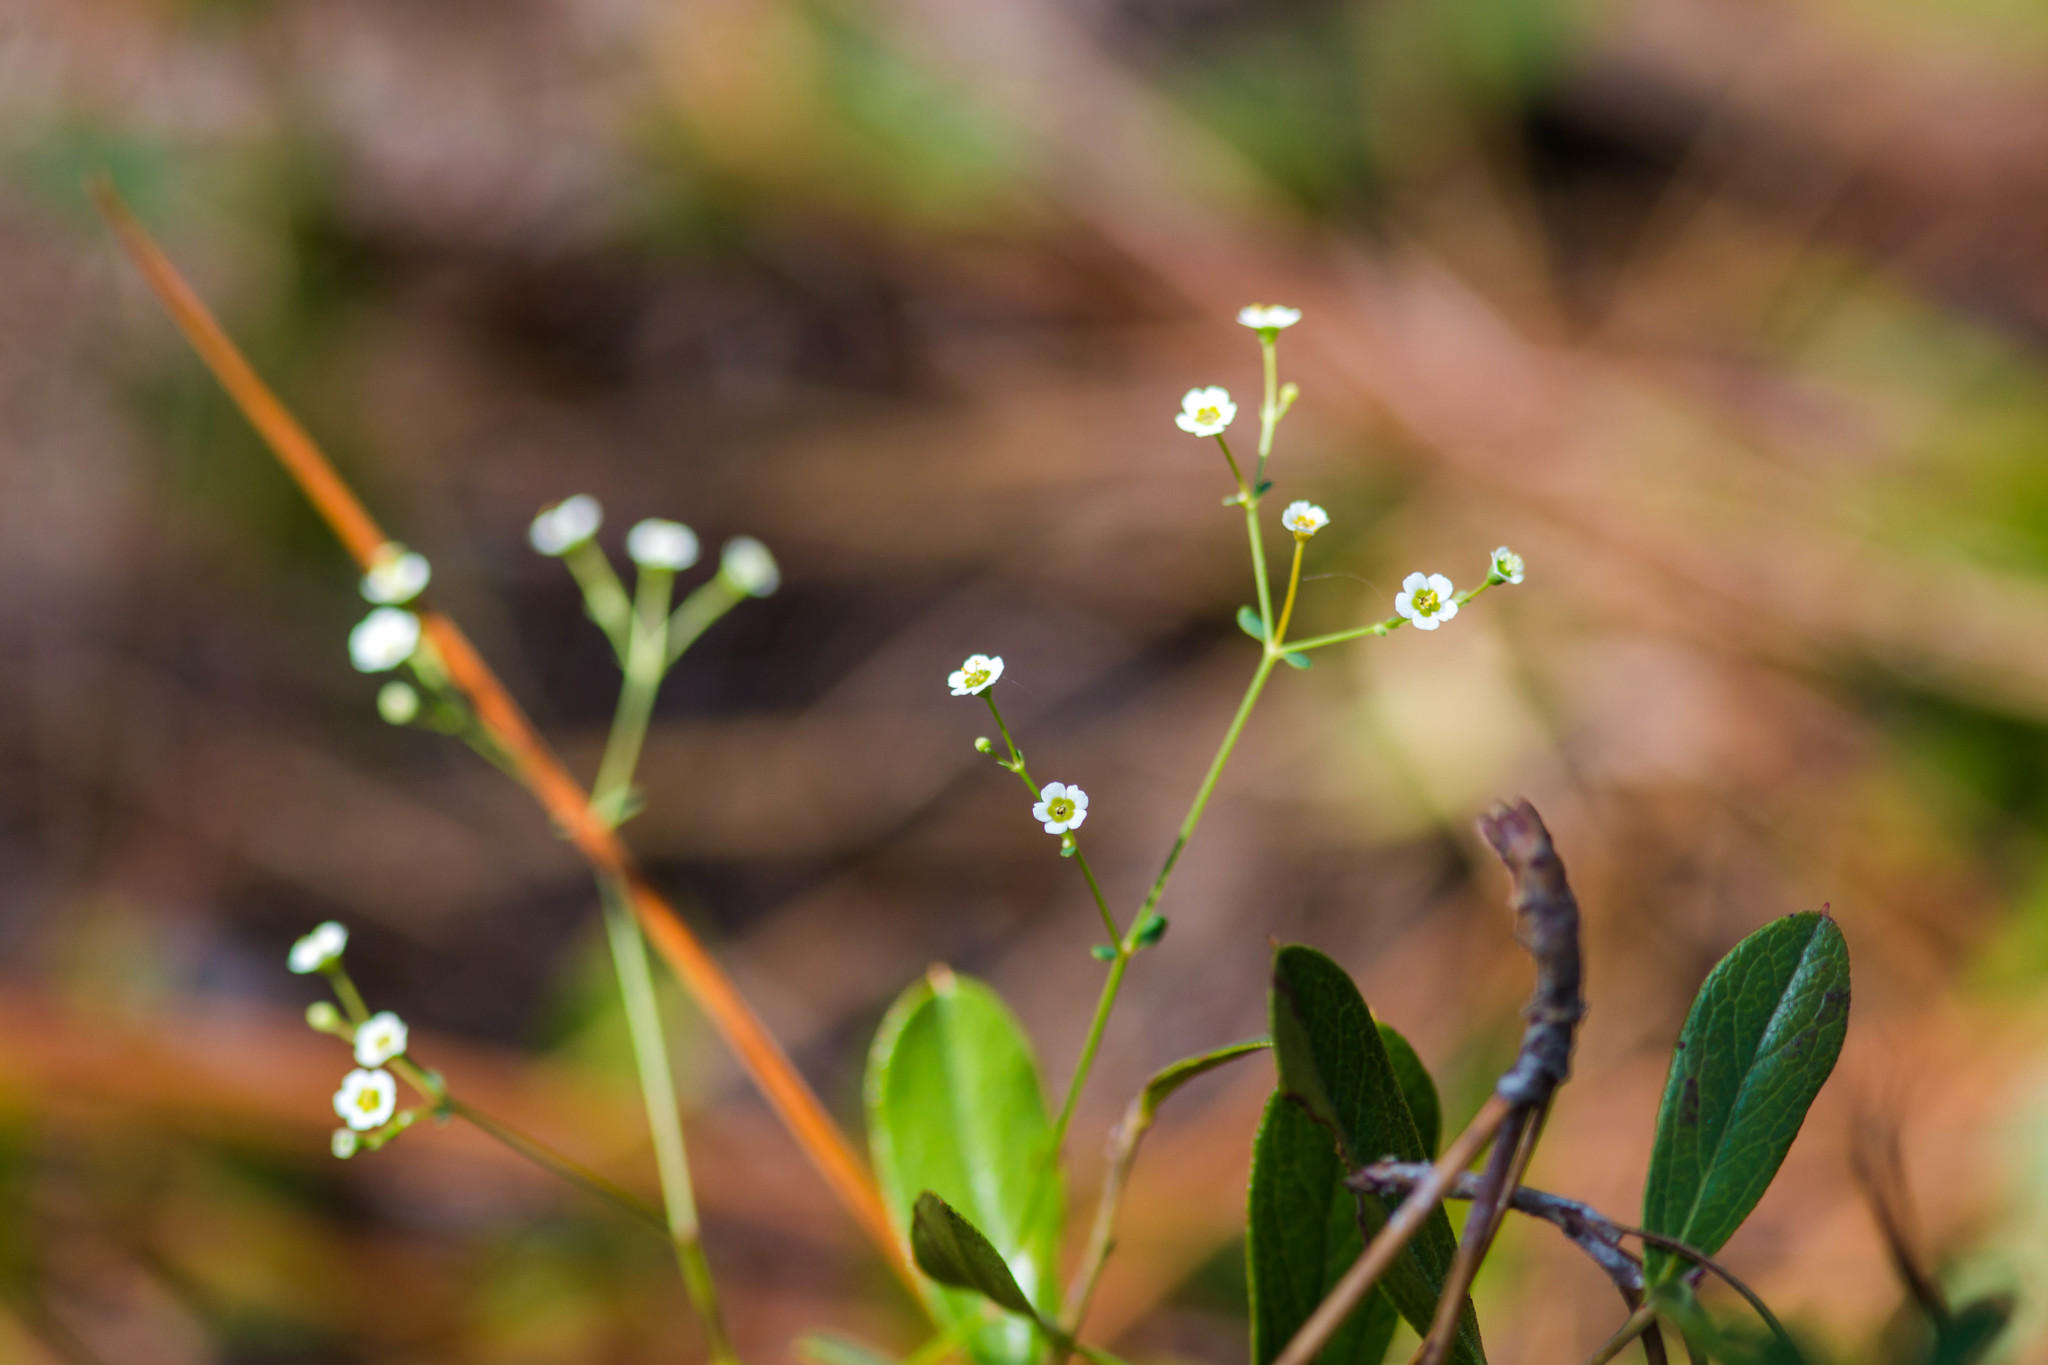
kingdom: Plantae
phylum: Tracheophyta
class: Magnoliopsida
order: Malpighiales
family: Euphorbiaceae
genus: Euphorbia
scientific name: Euphorbia
